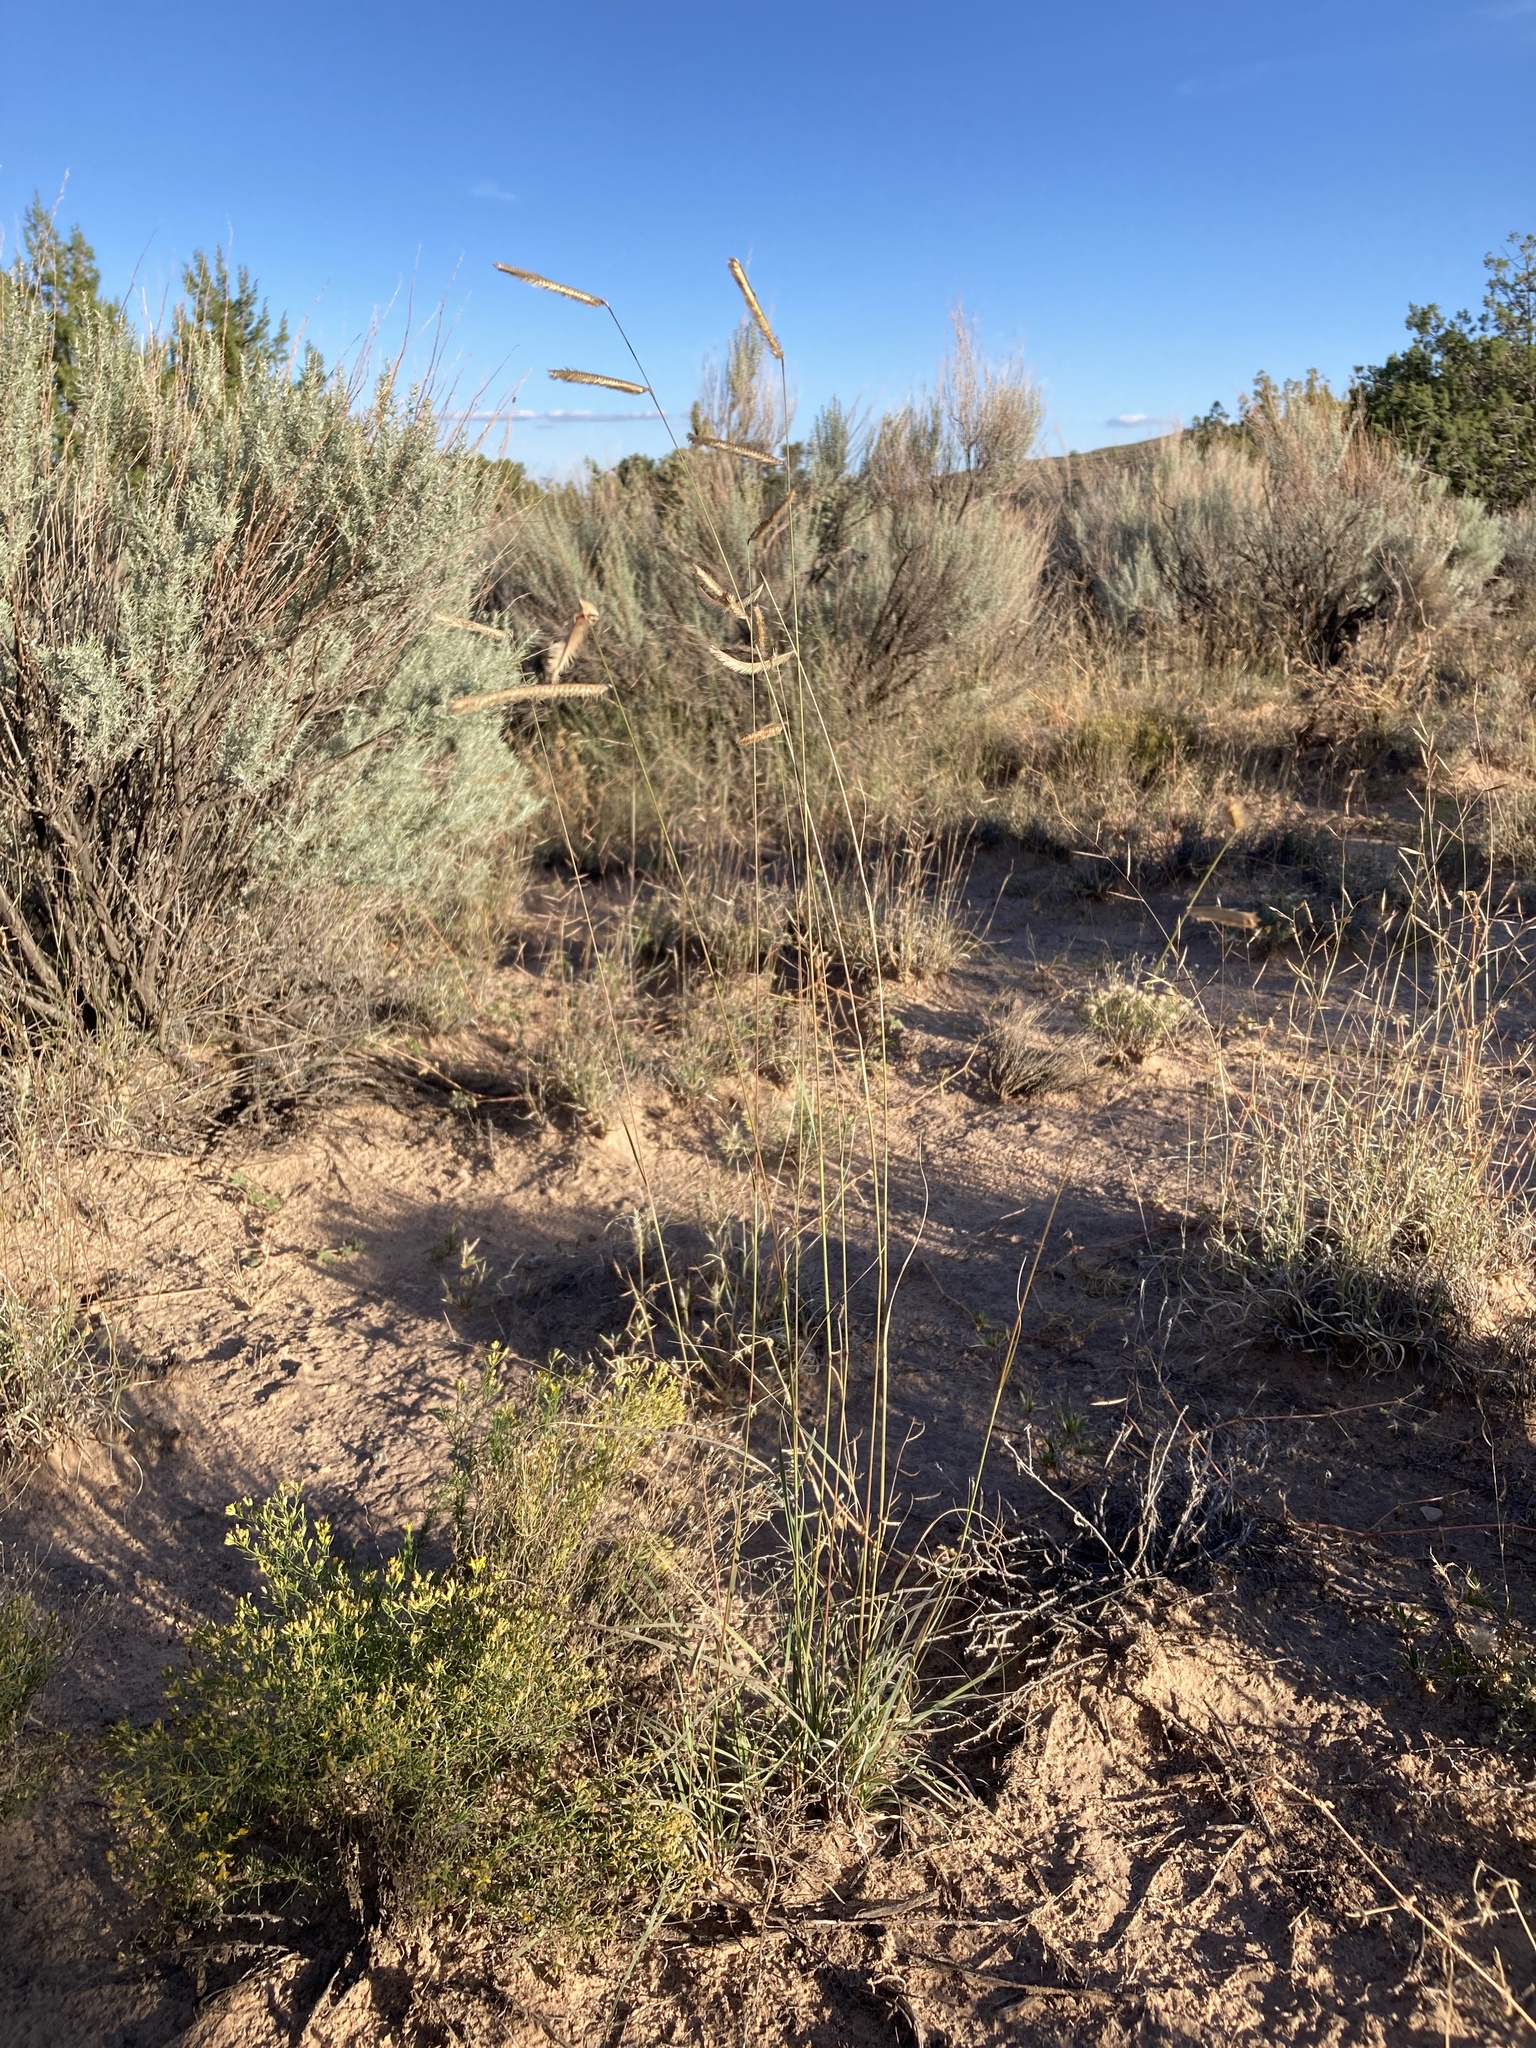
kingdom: Plantae
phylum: Tracheophyta
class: Liliopsida
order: Poales
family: Poaceae
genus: Bouteloua
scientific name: Bouteloua gracilis
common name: Blue grama
